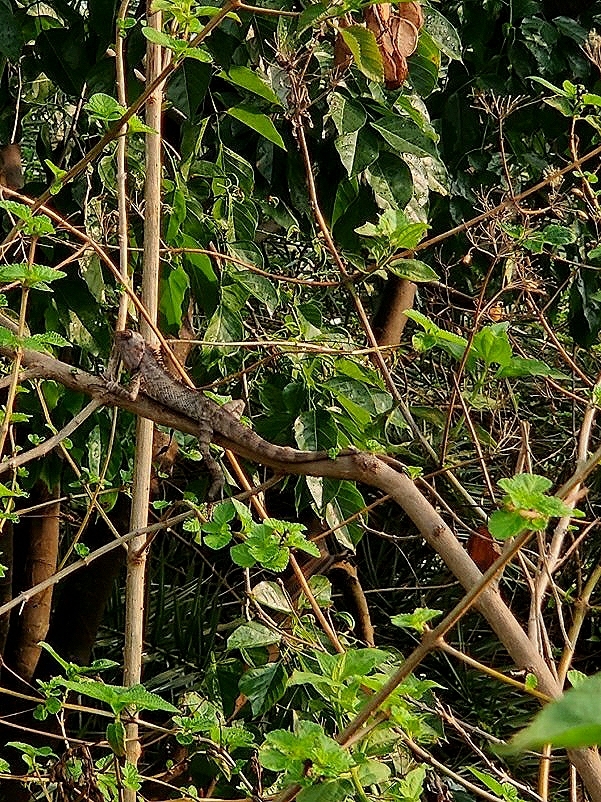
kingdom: Animalia
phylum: Chordata
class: Squamata
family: Agamidae
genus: Calotes
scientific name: Calotes versicolor
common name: Oriental garden lizard
